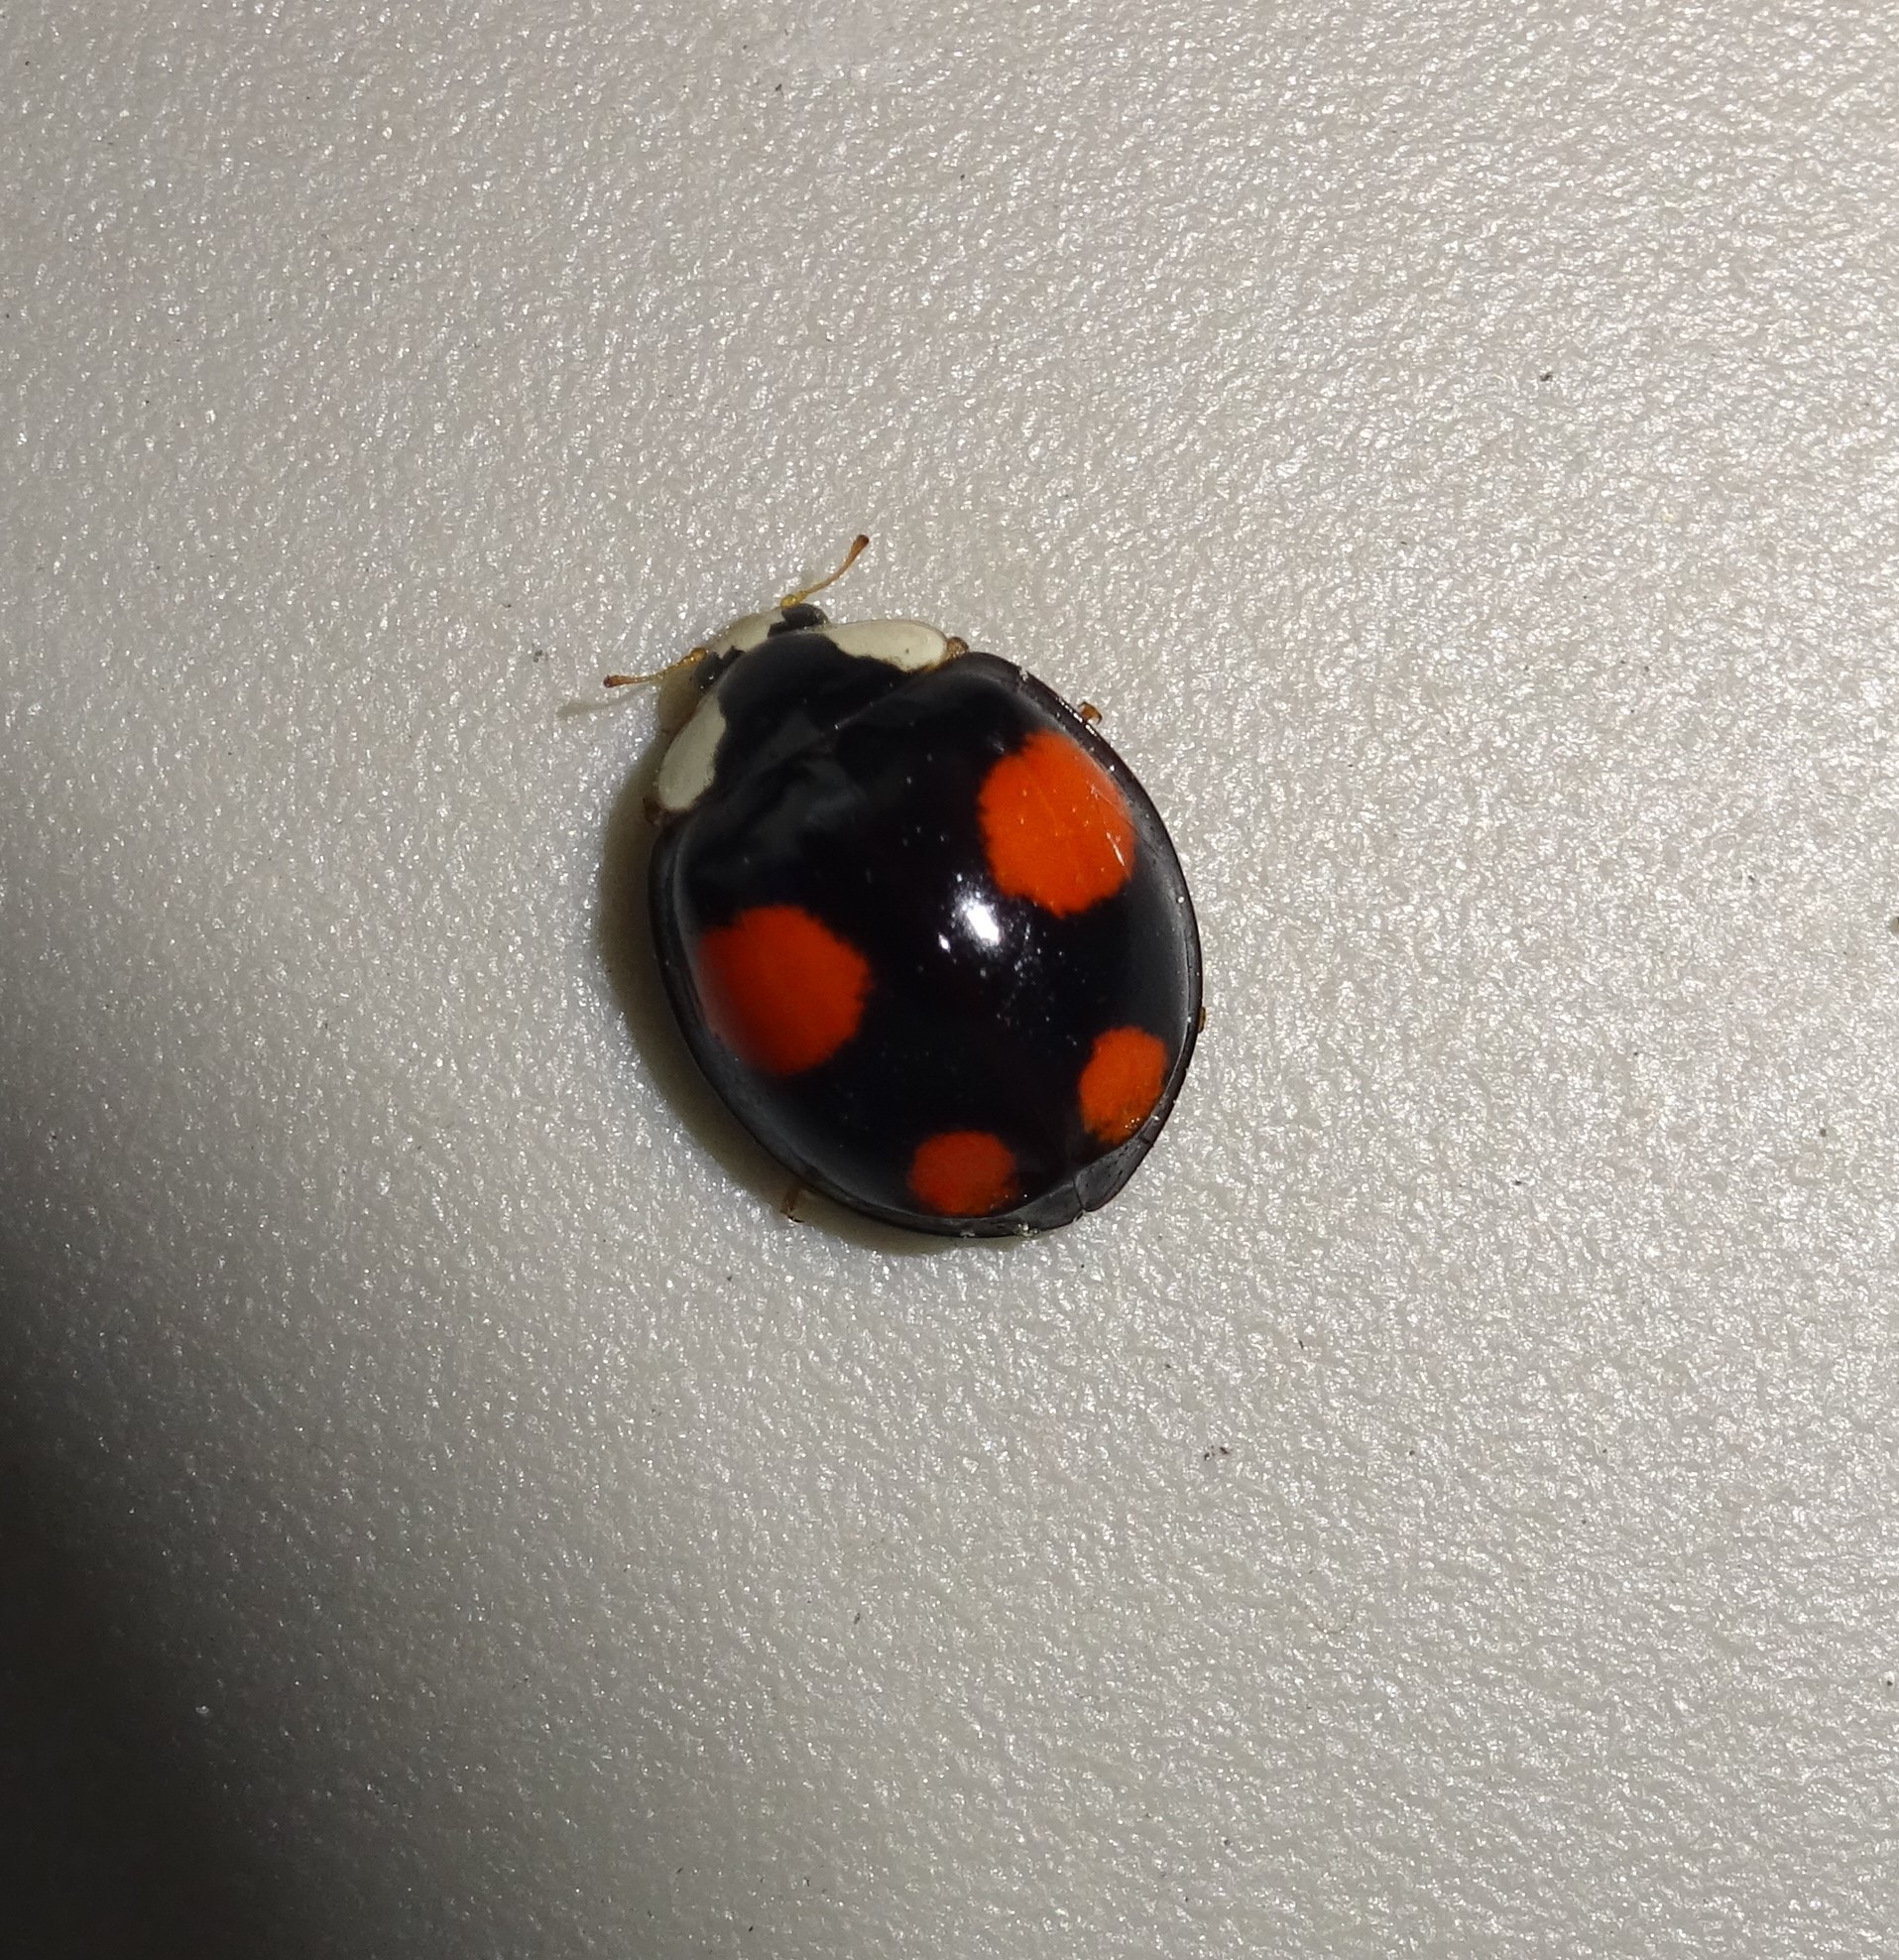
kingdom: Animalia
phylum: Arthropoda
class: Insecta
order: Coleoptera
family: Coccinellidae
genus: Harmonia
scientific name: Harmonia axyridis
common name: Harlequin ladybird
